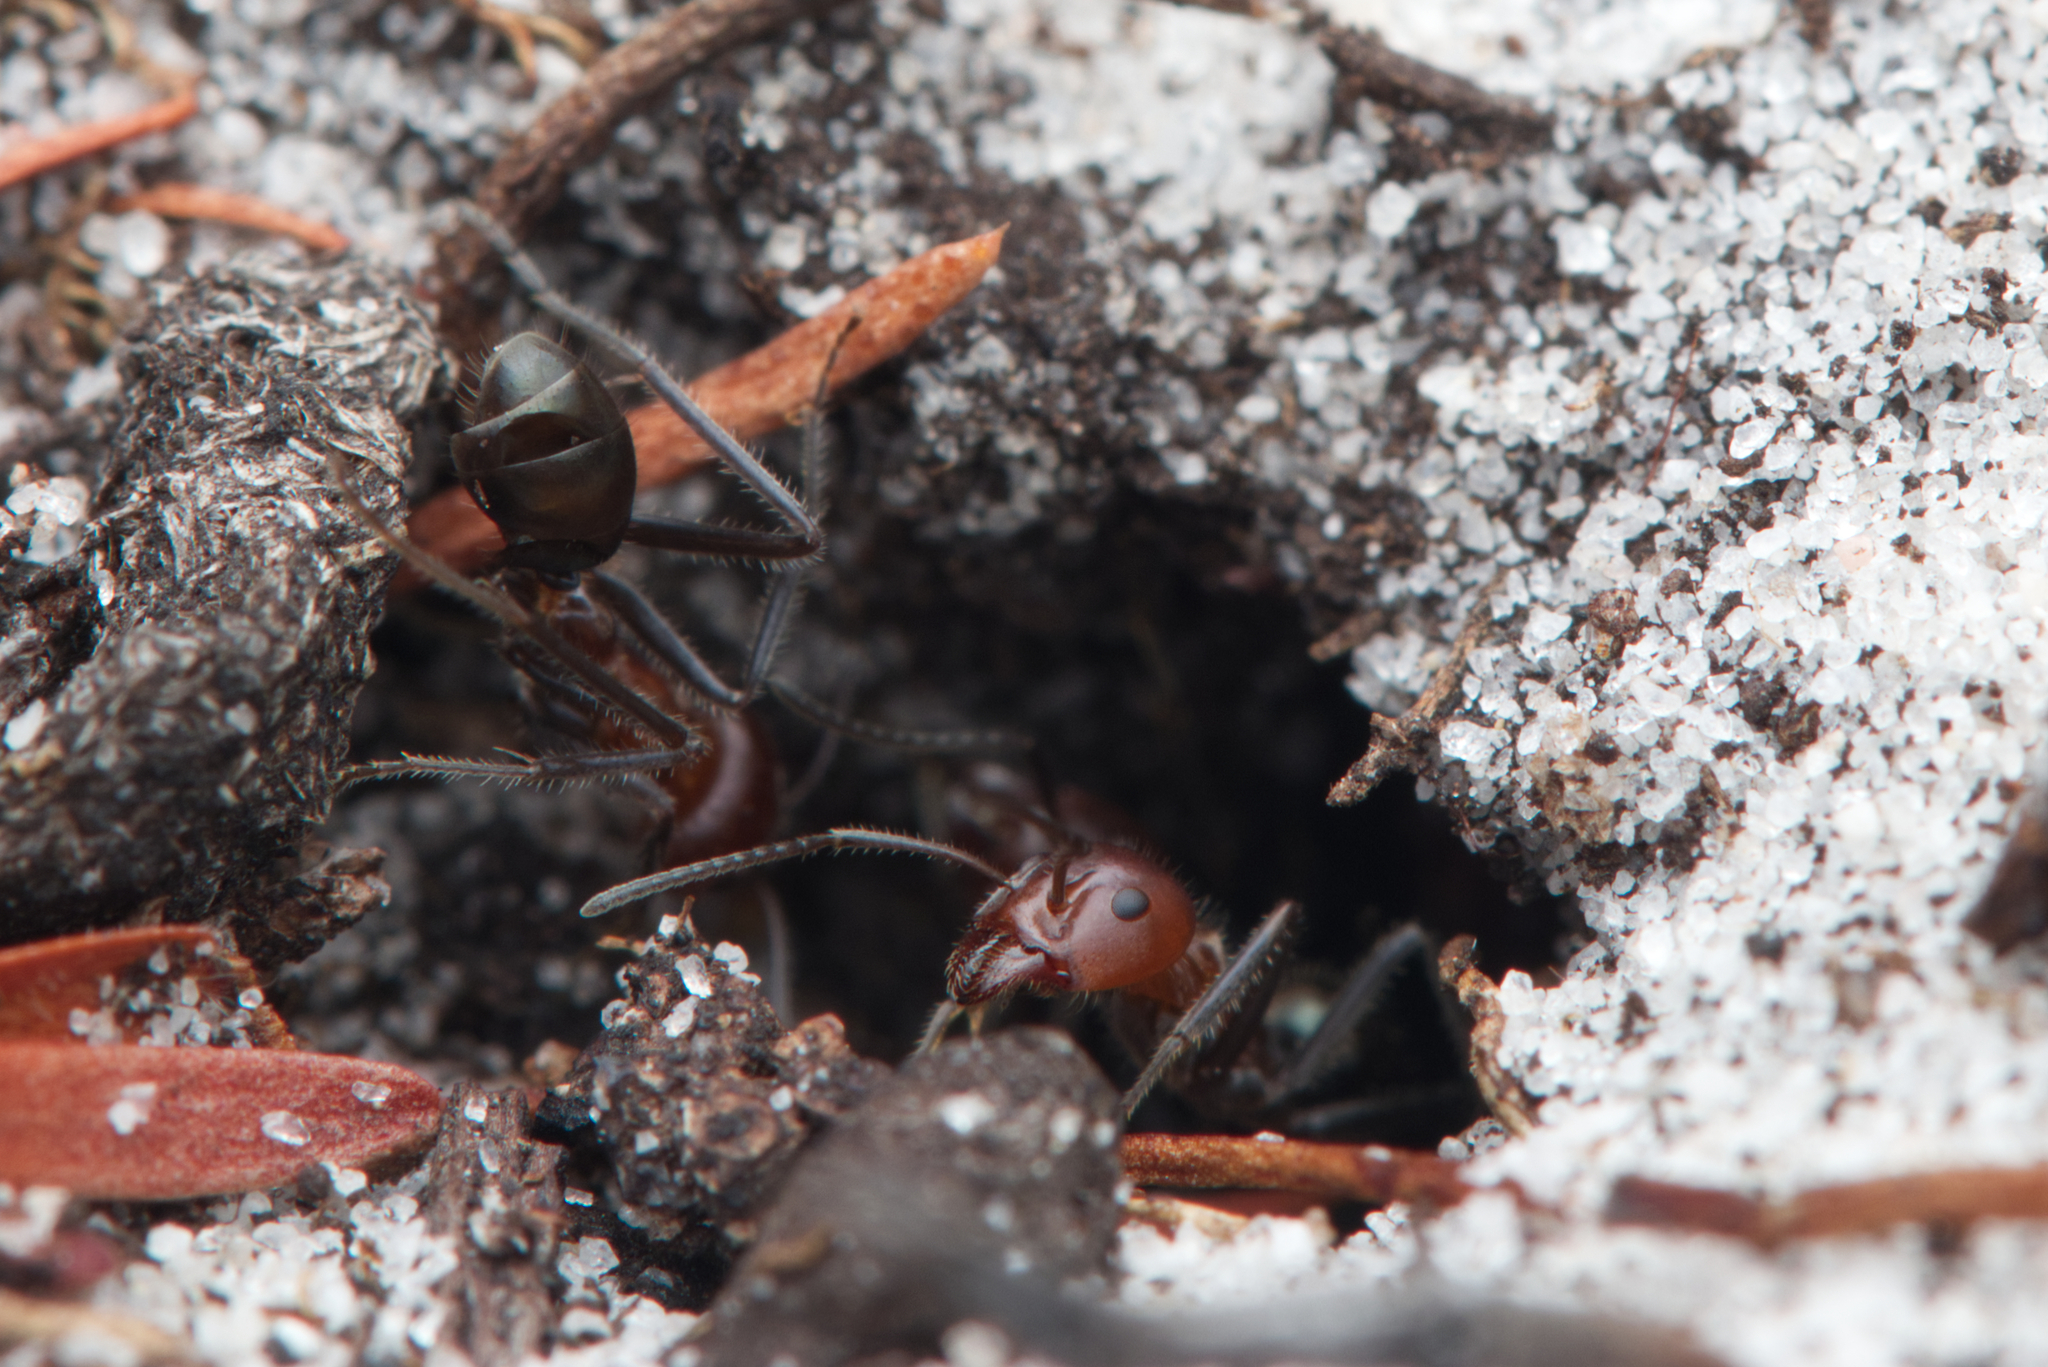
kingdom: Animalia
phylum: Arthropoda
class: Insecta
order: Hymenoptera
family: Formicidae
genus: Iridomyrmex
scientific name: Iridomyrmex discors
